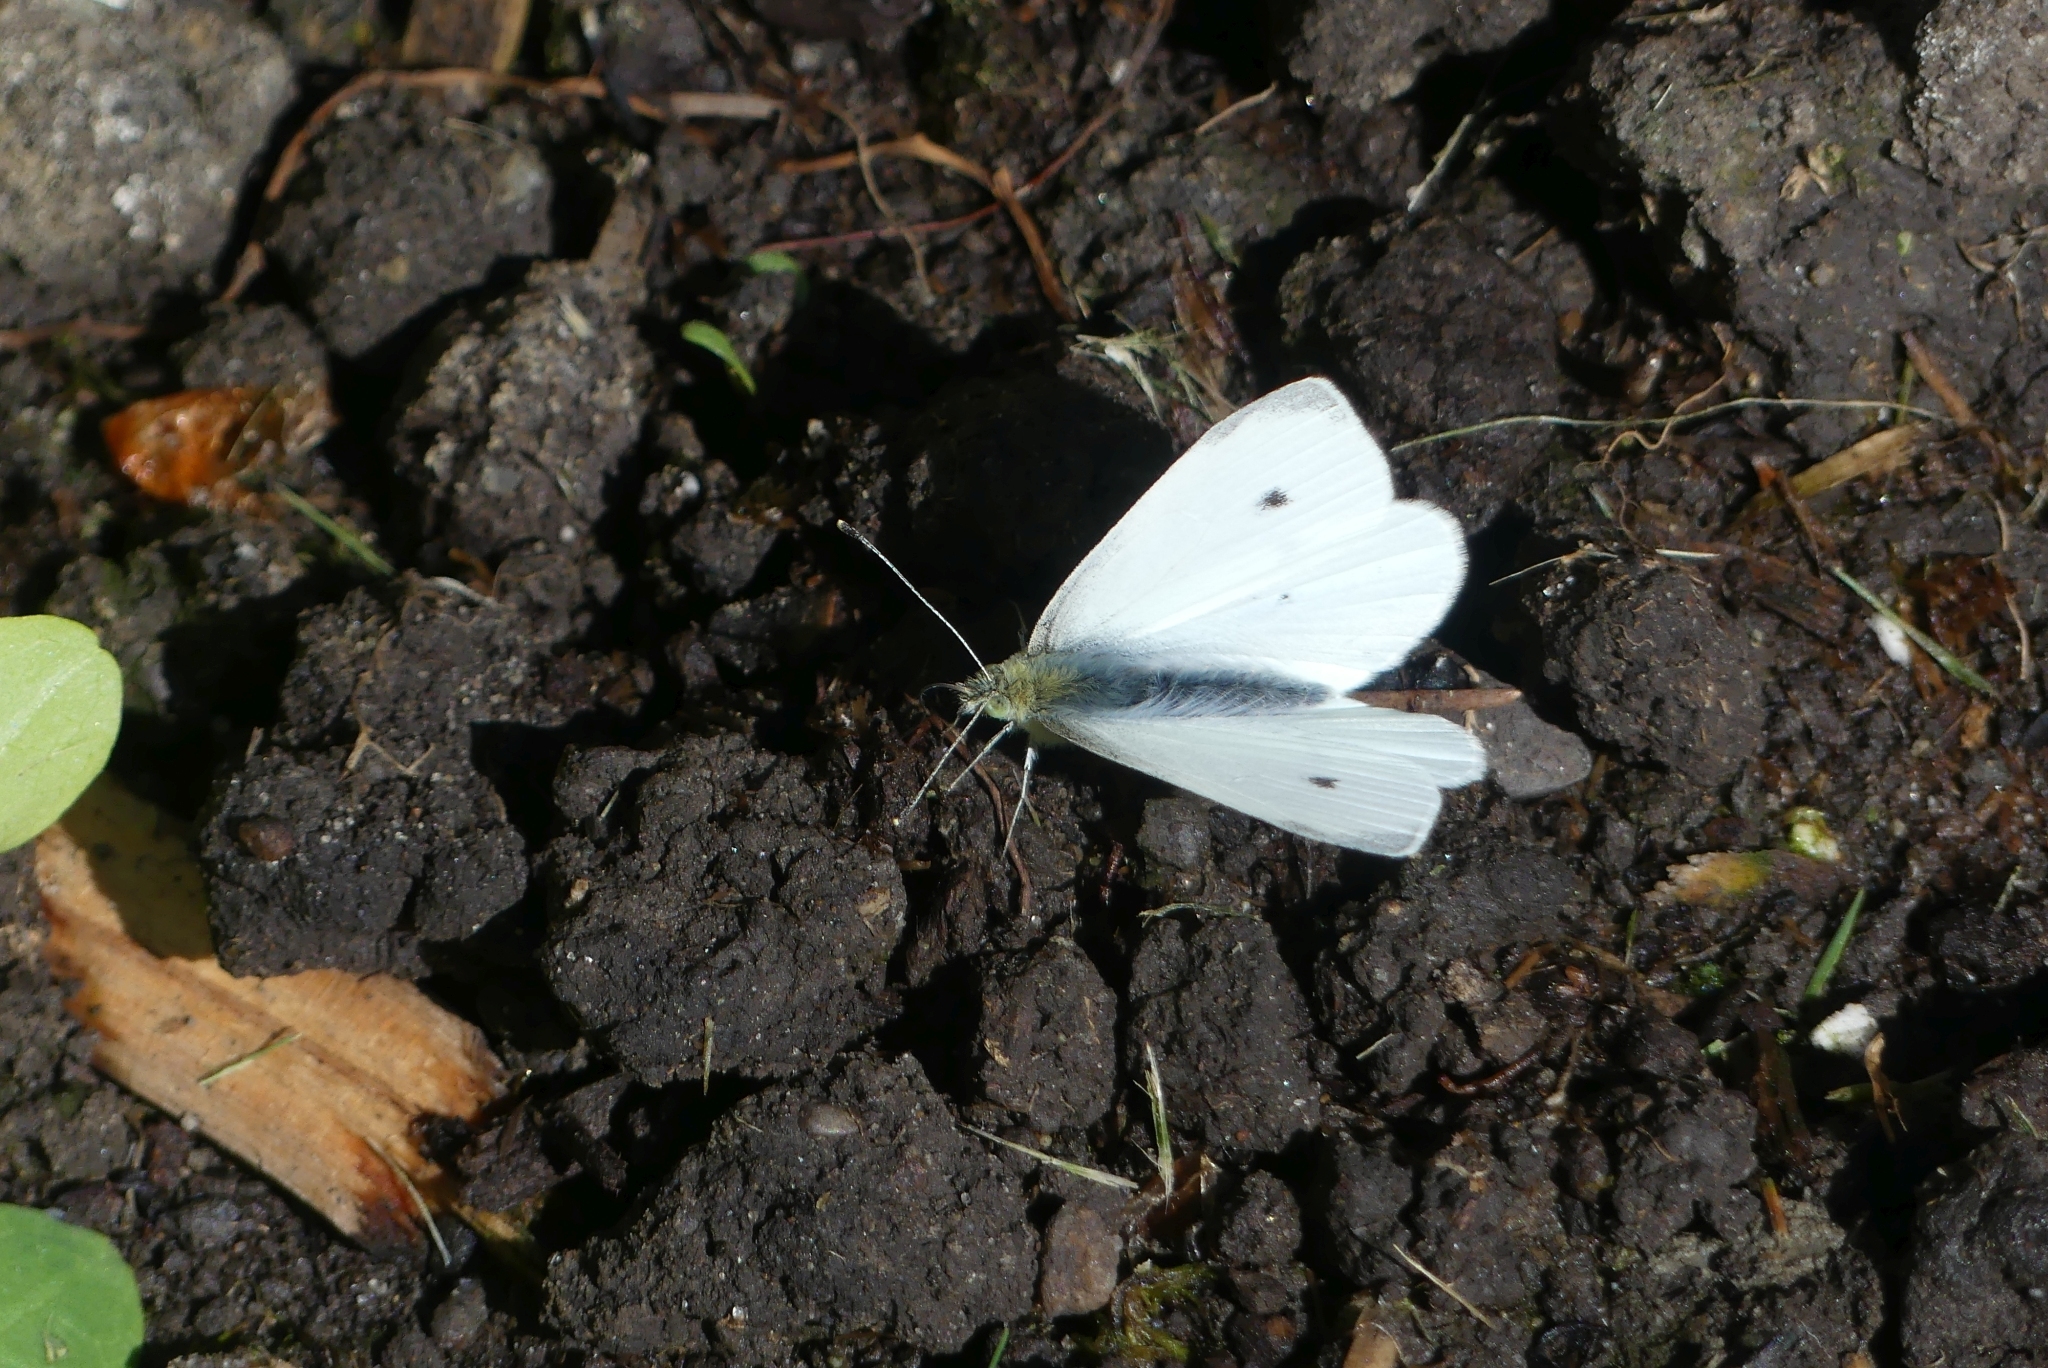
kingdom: Animalia
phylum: Arthropoda
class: Insecta
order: Lepidoptera
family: Pieridae
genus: Pieris
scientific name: Pieris rapae
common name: Small white
